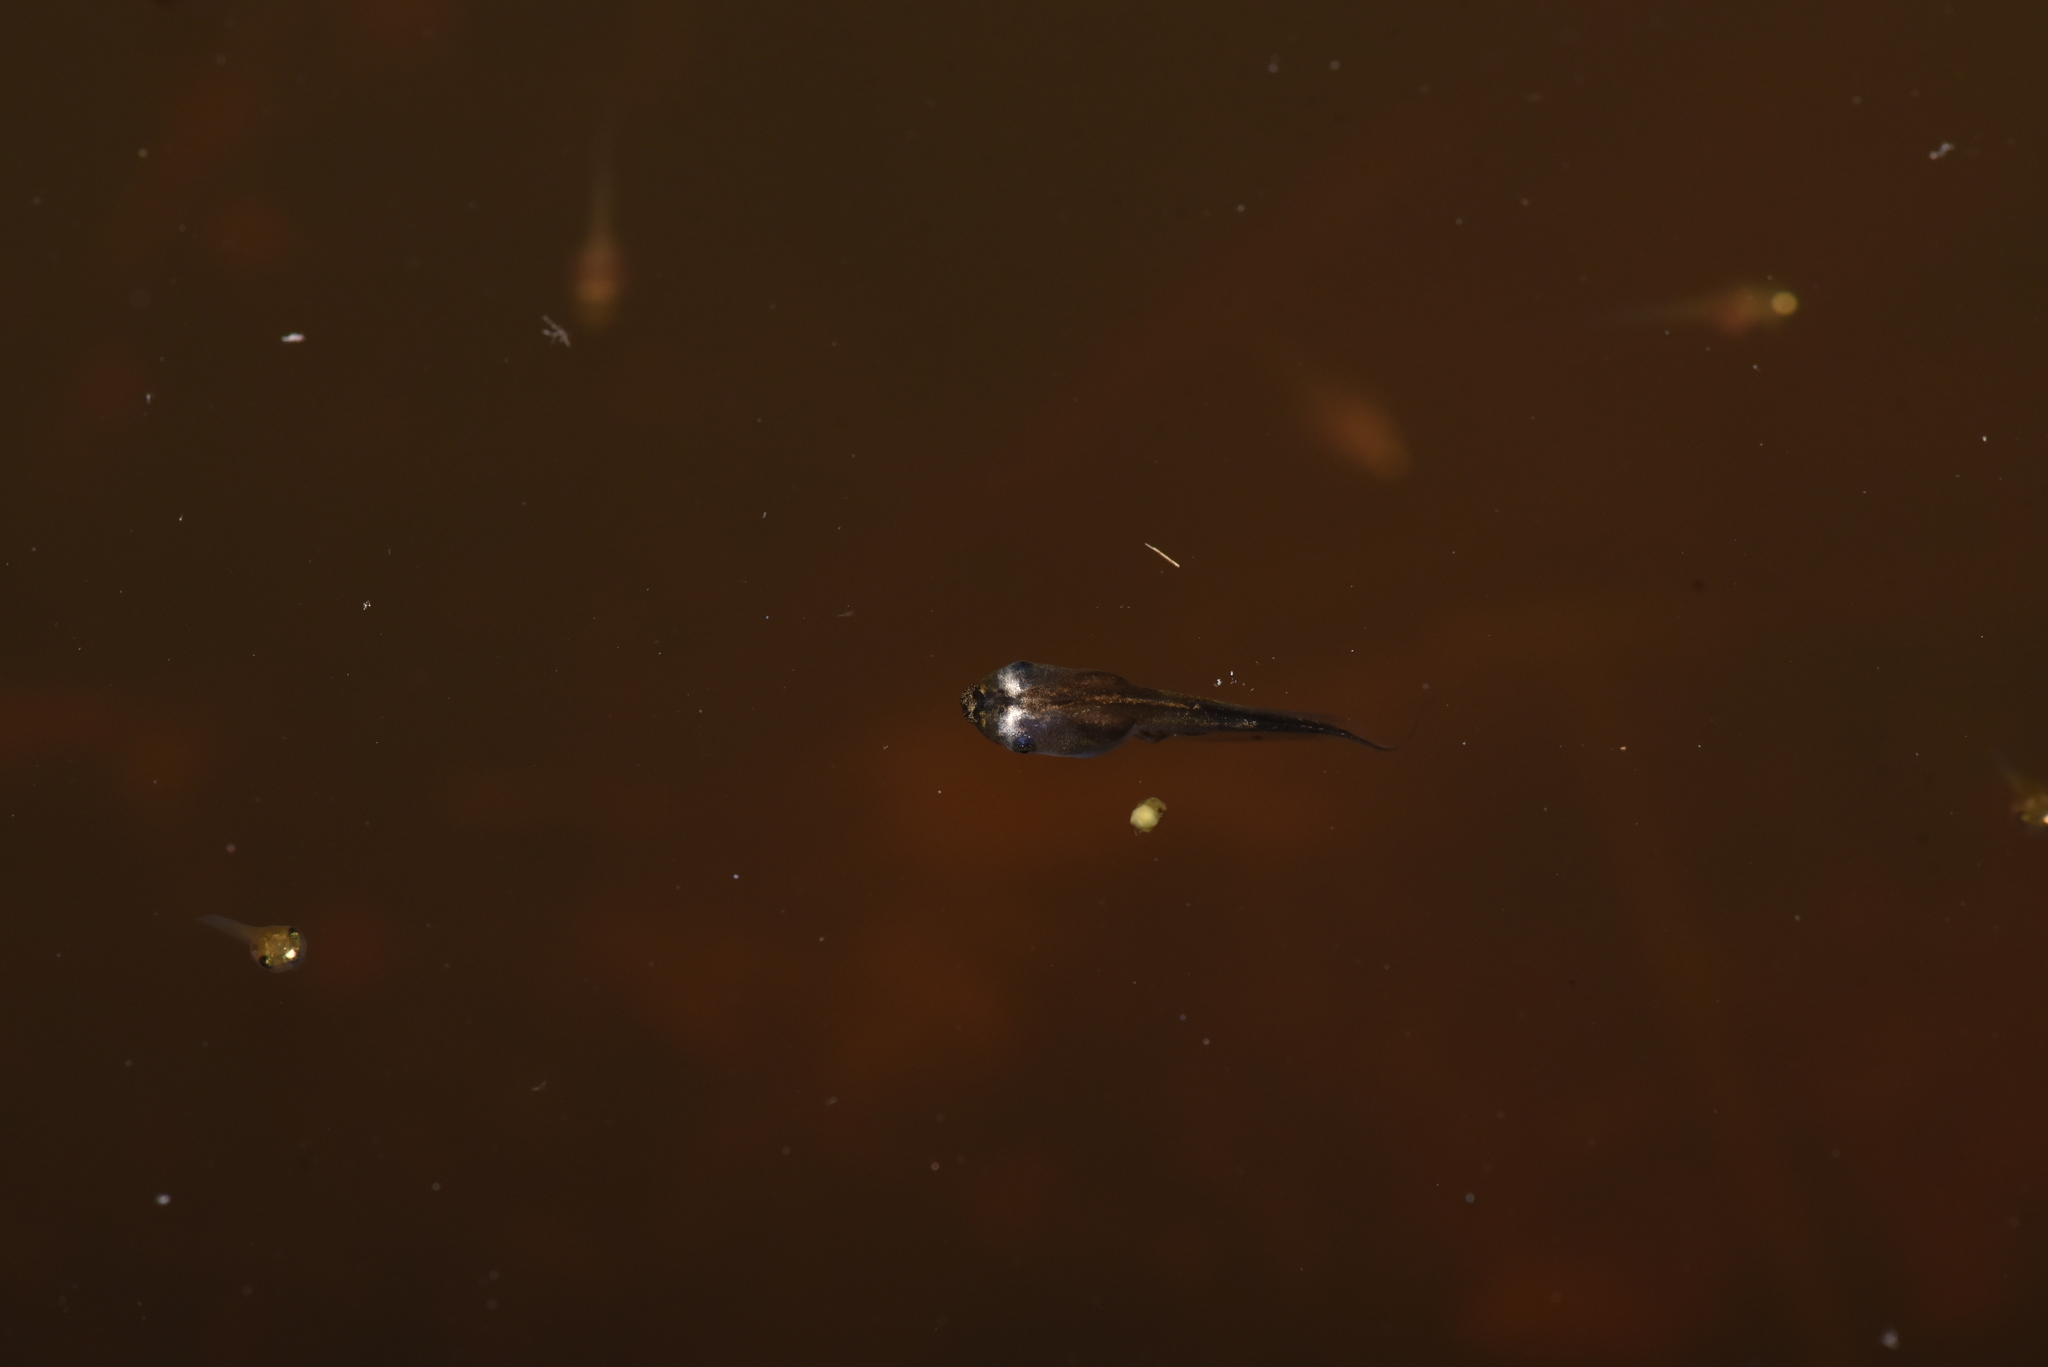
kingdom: Animalia
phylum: Chordata
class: Amphibia
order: Anura
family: Microhylidae
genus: Microhyla
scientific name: Microhyla heymonsi
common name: Taiwan rice frog,dark sided chorus frog
